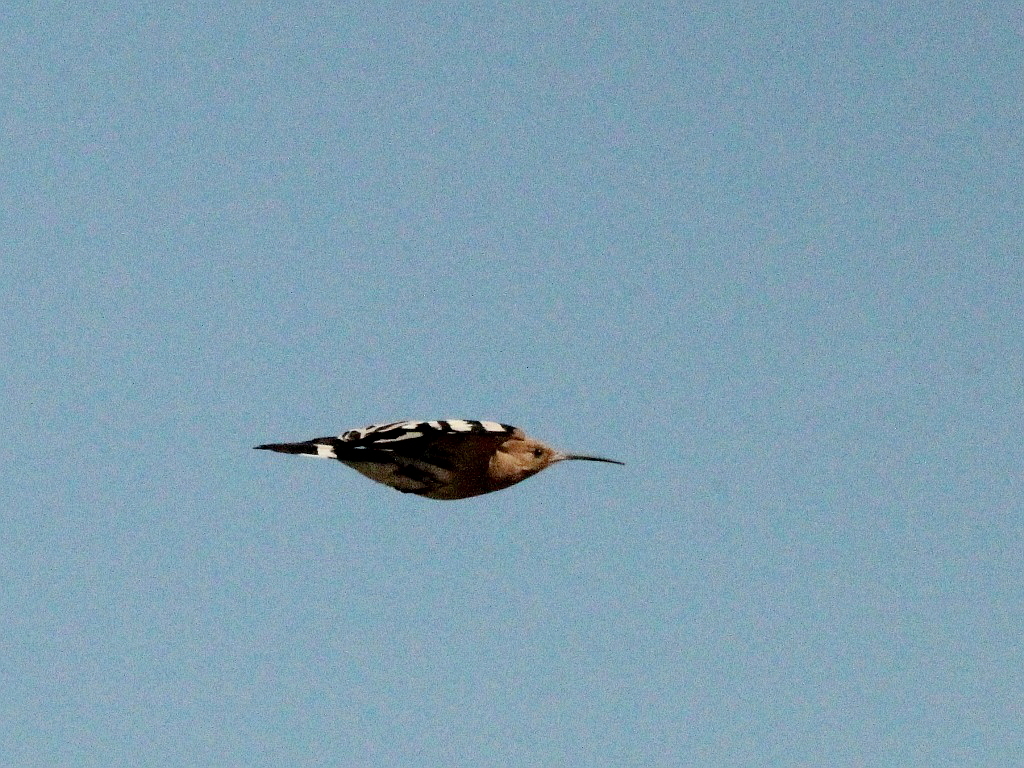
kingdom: Animalia
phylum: Chordata
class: Aves
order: Bucerotiformes
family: Upupidae
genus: Upupa
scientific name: Upupa epops
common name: Eurasian hoopoe
